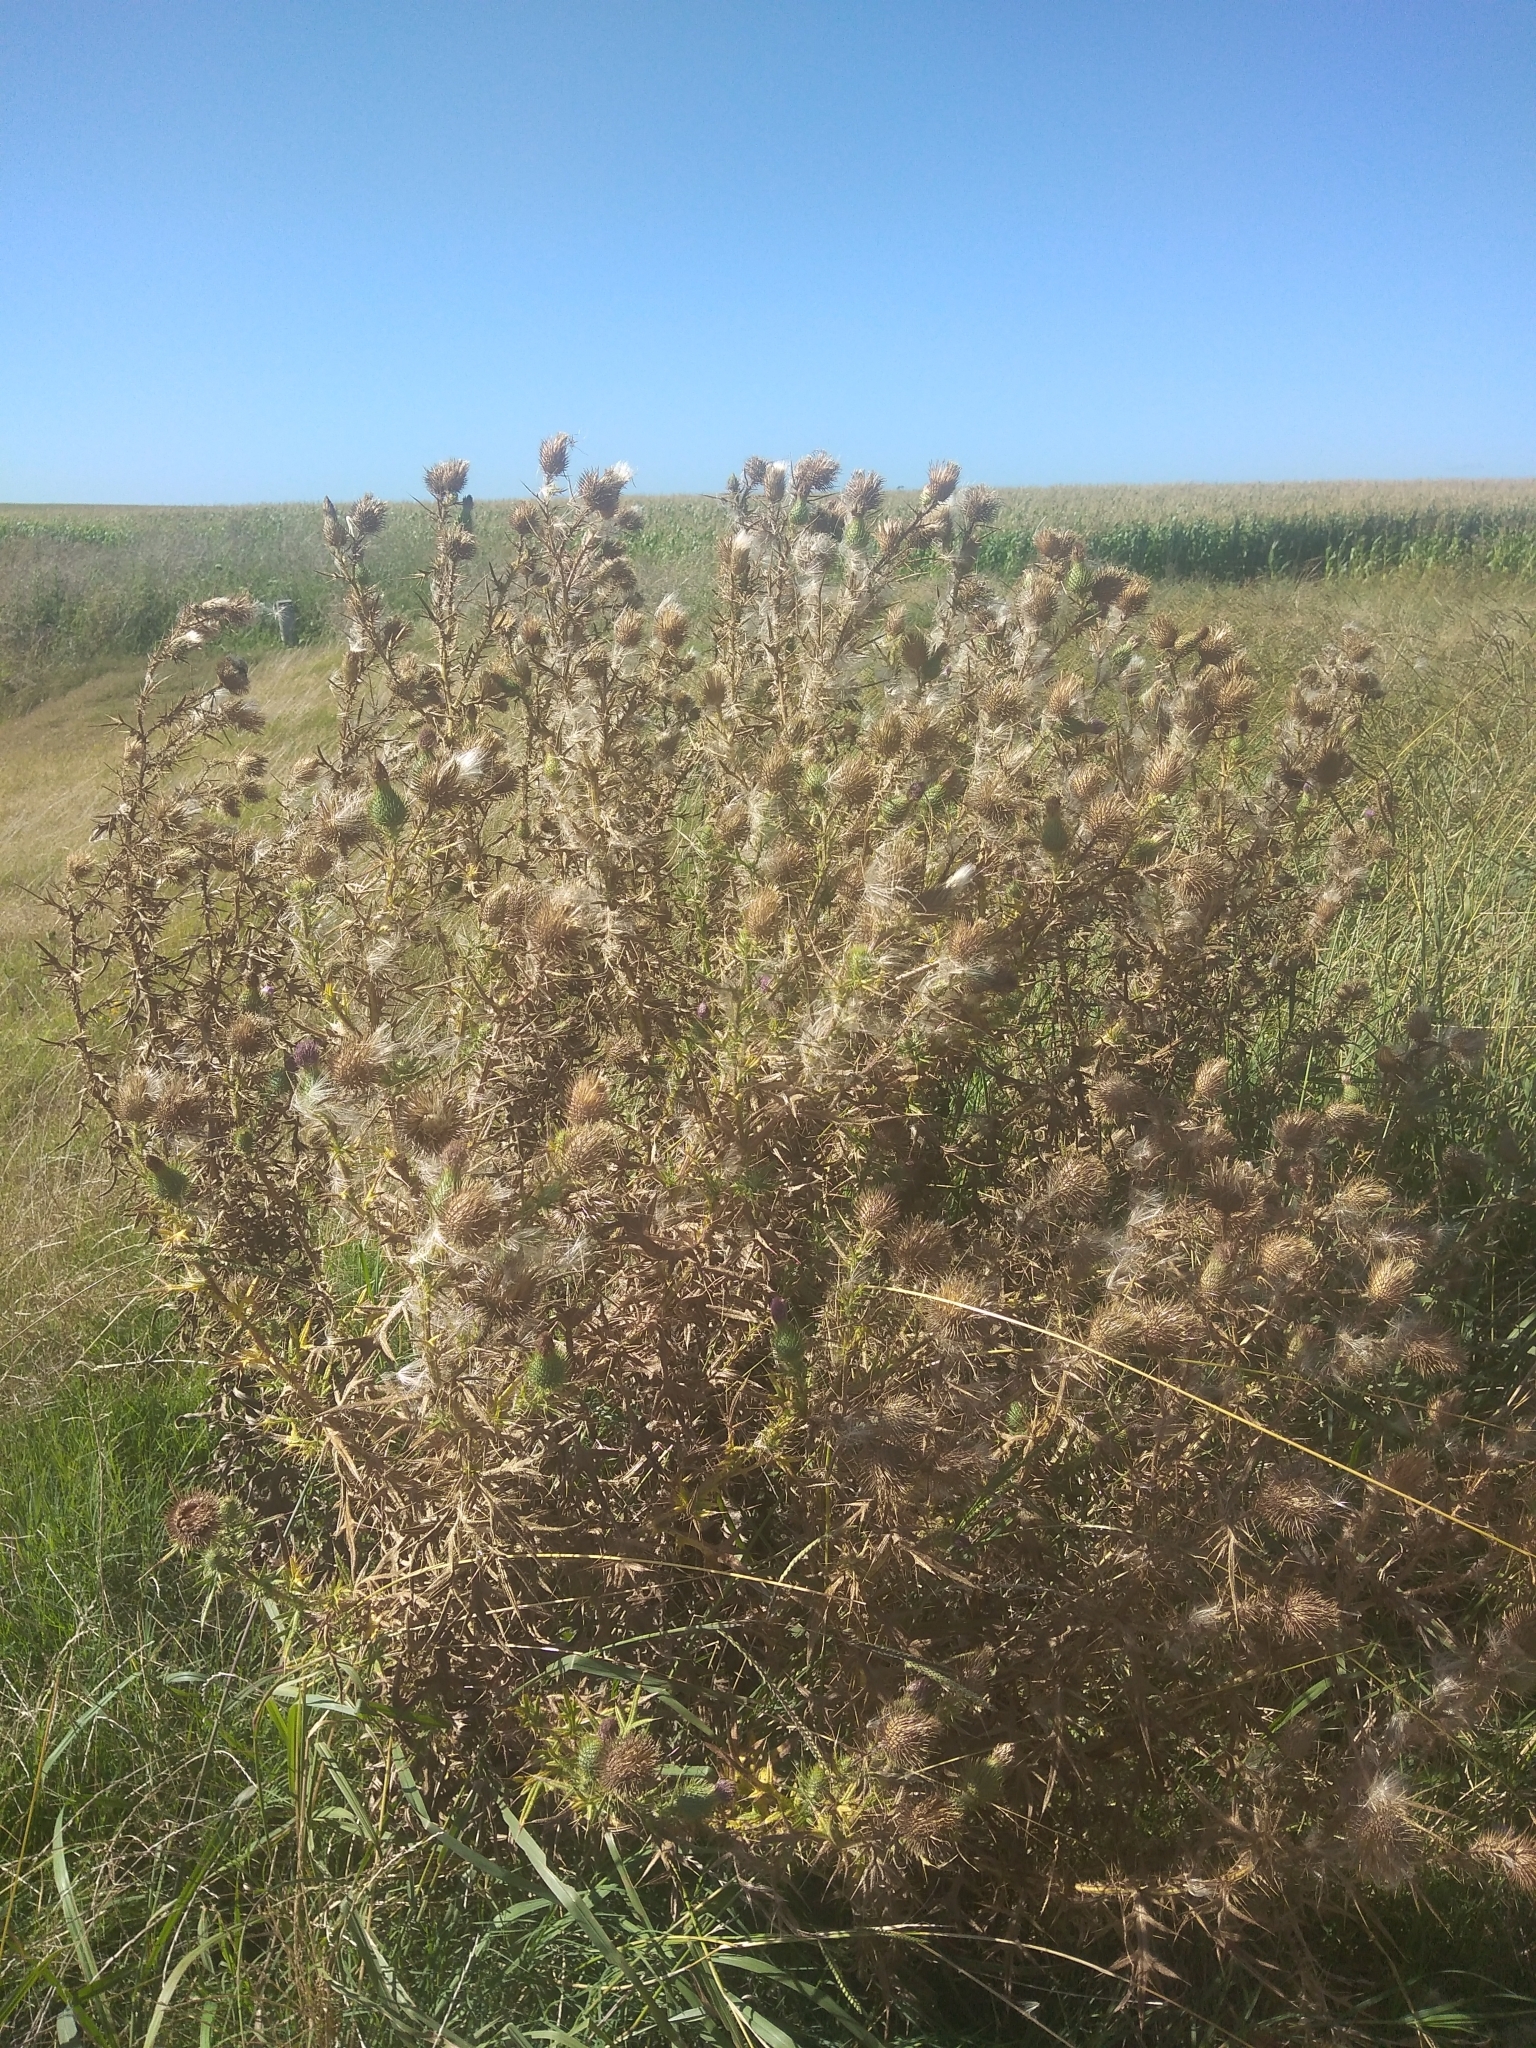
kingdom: Plantae
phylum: Tracheophyta
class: Magnoliopsida
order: Asterales
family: Asteraceae
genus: Cirsium
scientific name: Cirsium vulgare
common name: Bull thistle
